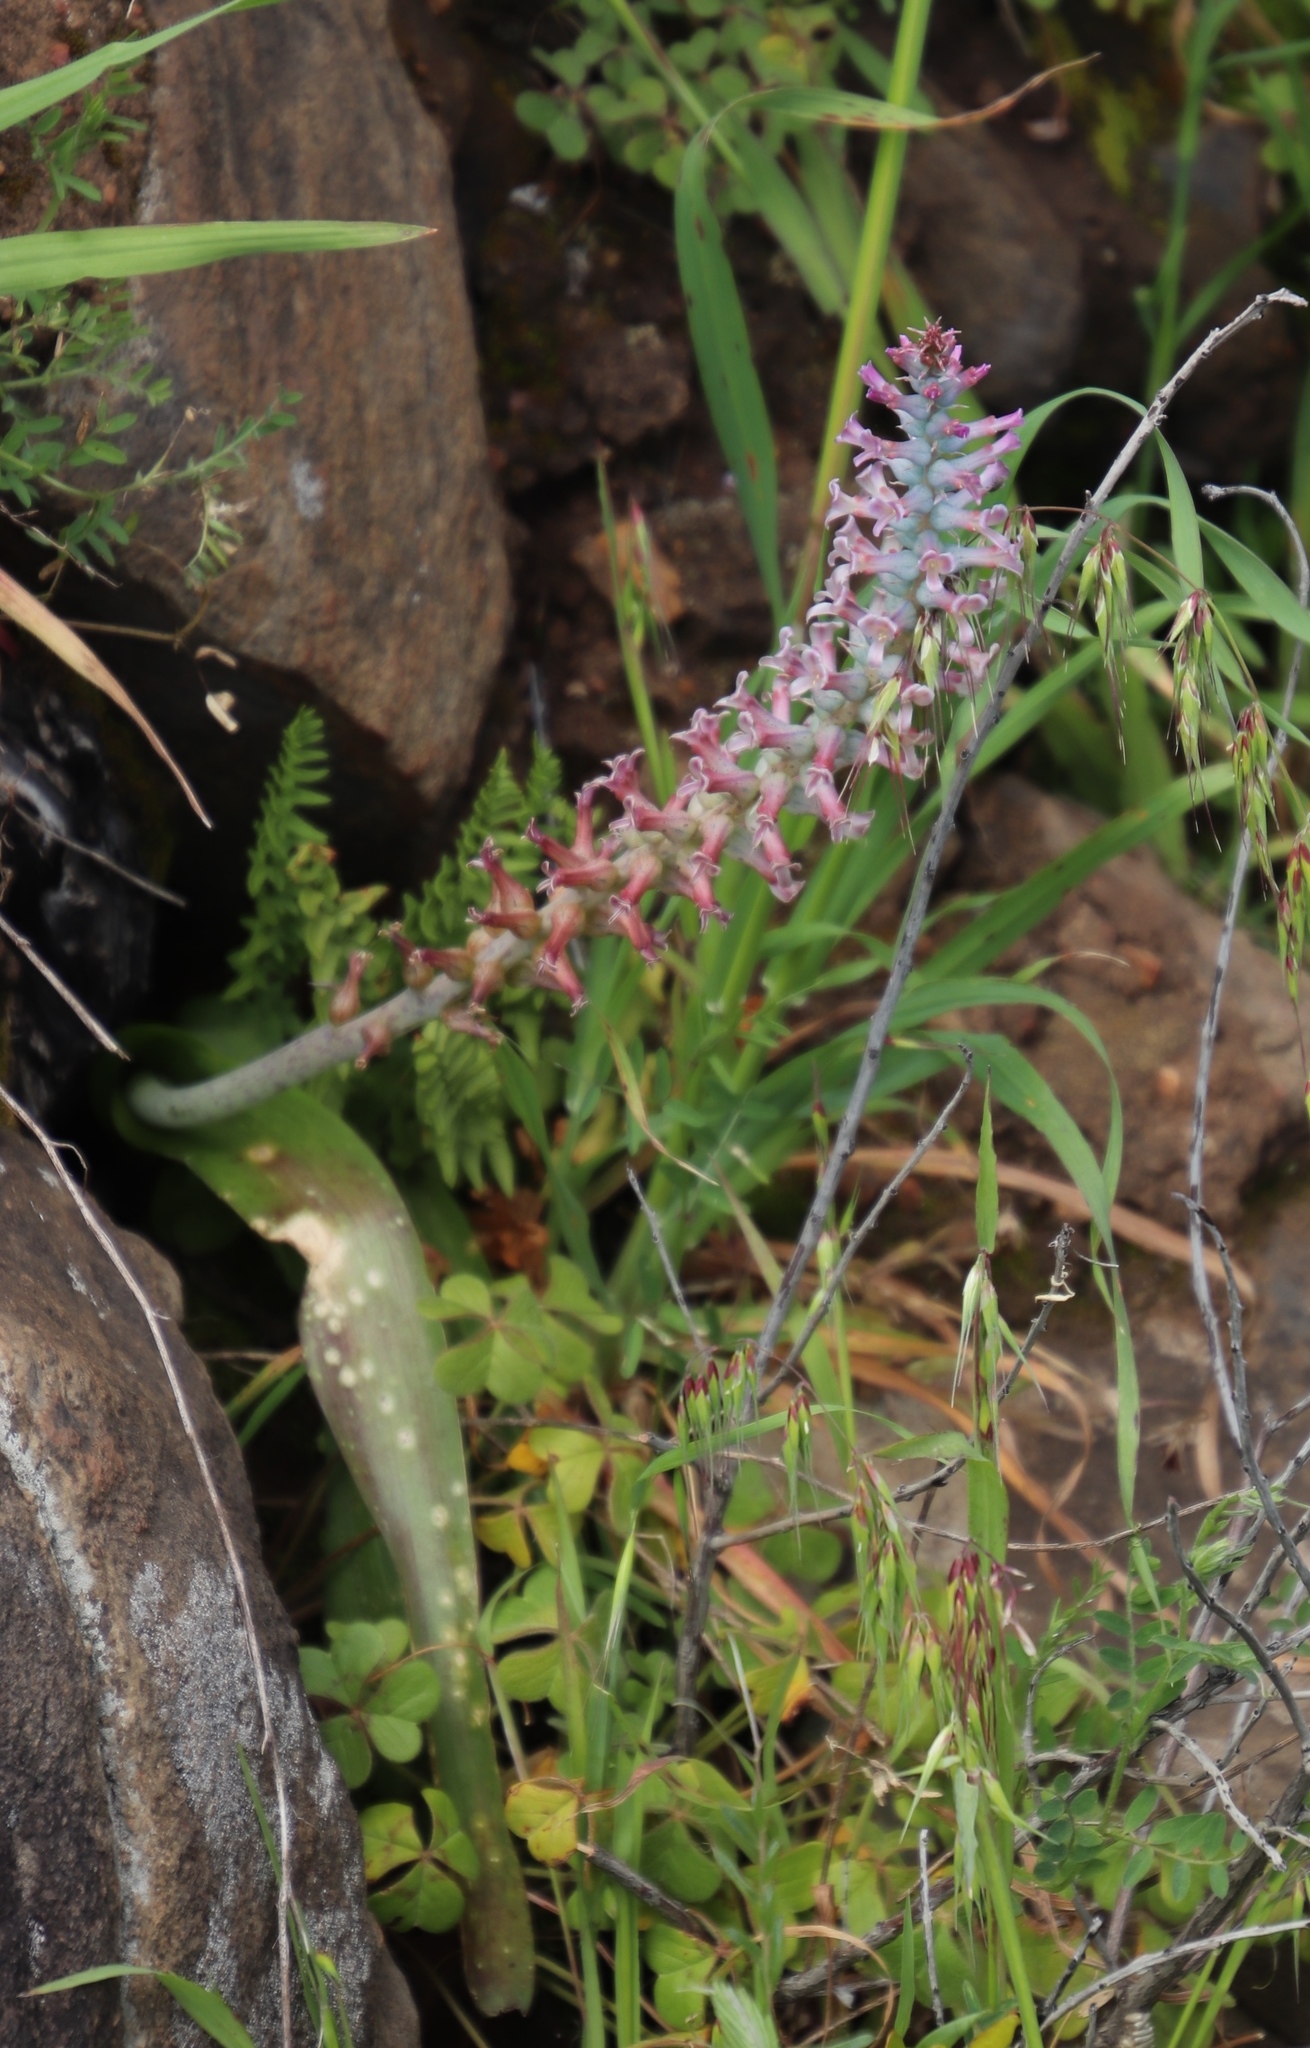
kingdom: Plantae
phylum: Tracheophyta
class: Liliopsida
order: Asparagales
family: Asparagaceae
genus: Lachenalia
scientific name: Lachenalia fistulosa
